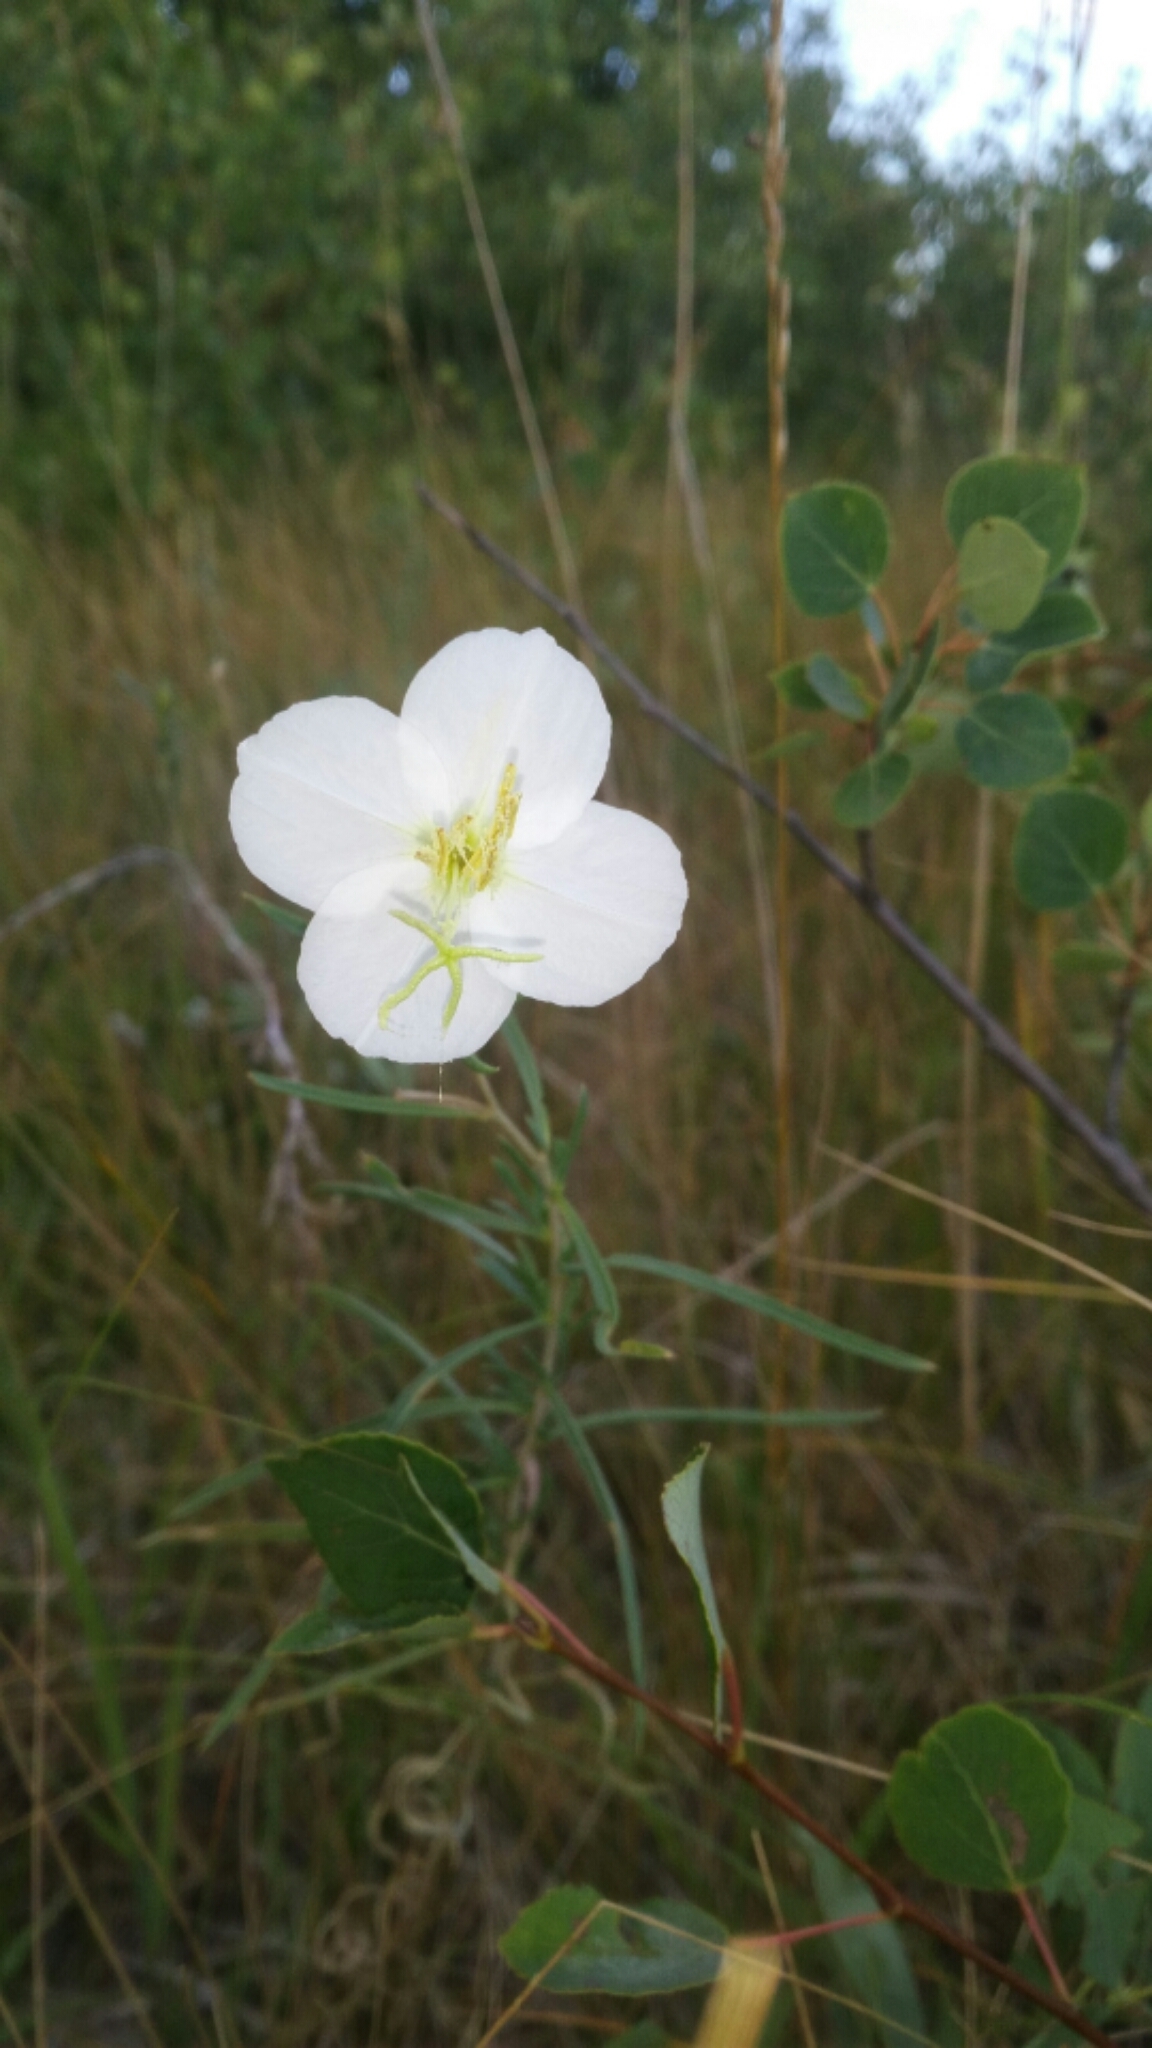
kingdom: Plantae
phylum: Tracheophyta
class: Magnoliopsida
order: Myrtales
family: Onagraceae
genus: Oenothera
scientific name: Oenothera nuttallii
